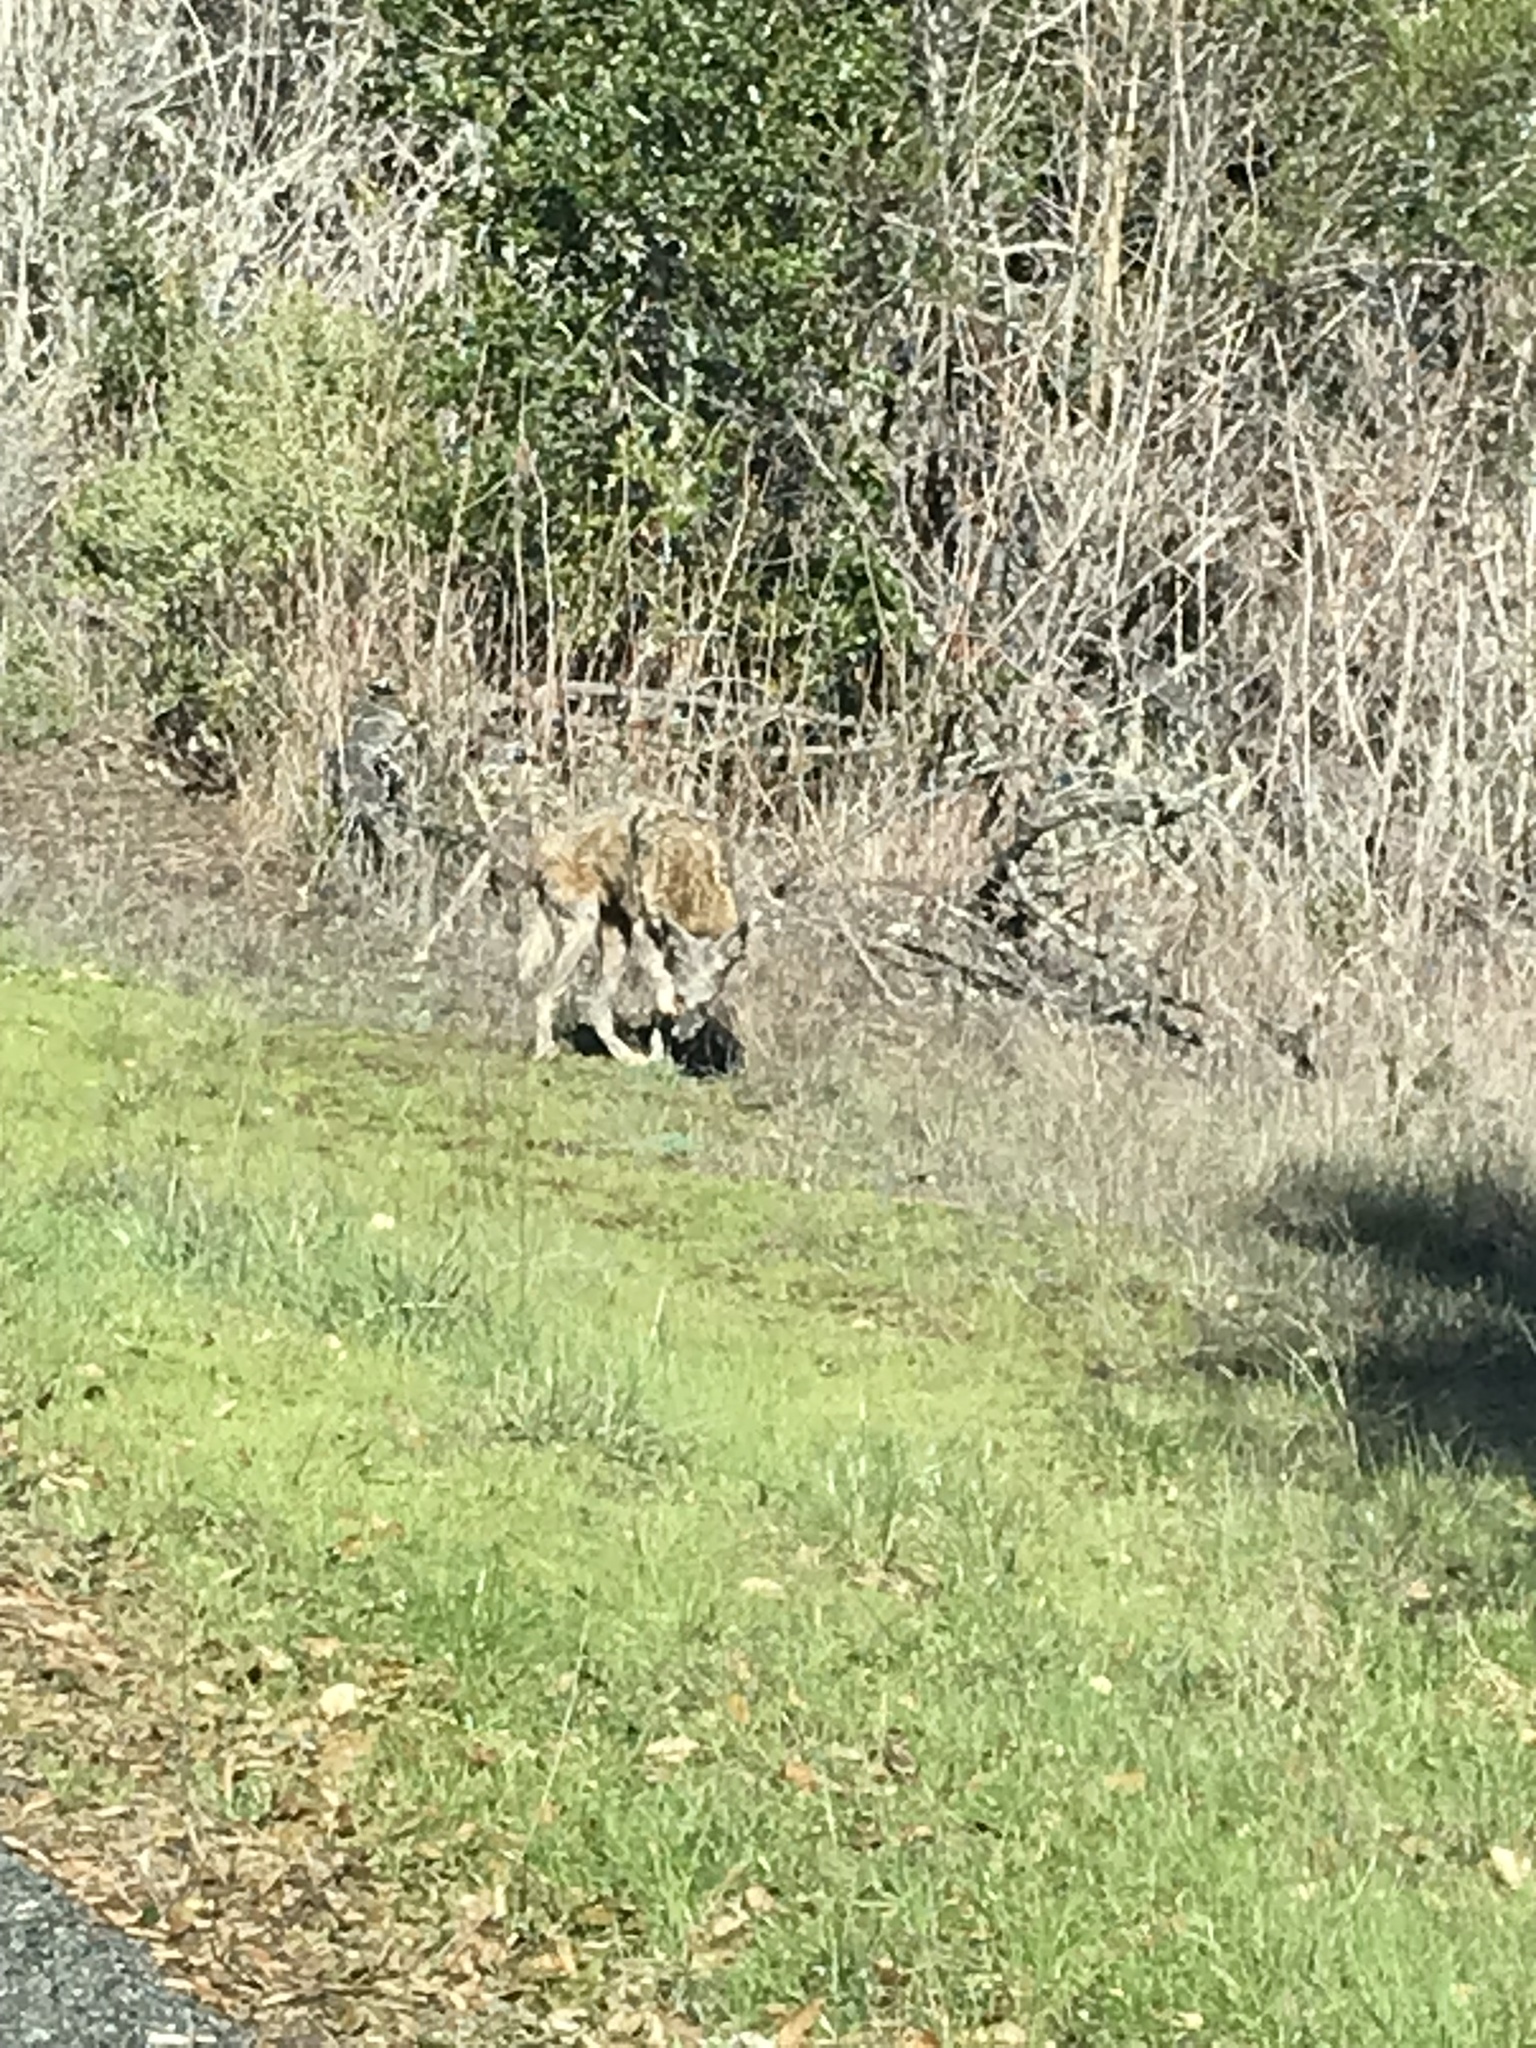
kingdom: Animalia
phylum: Chordata
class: Mammalia
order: Carnivora
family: Canidae
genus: Canis
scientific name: Canis latrans
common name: Coyote
